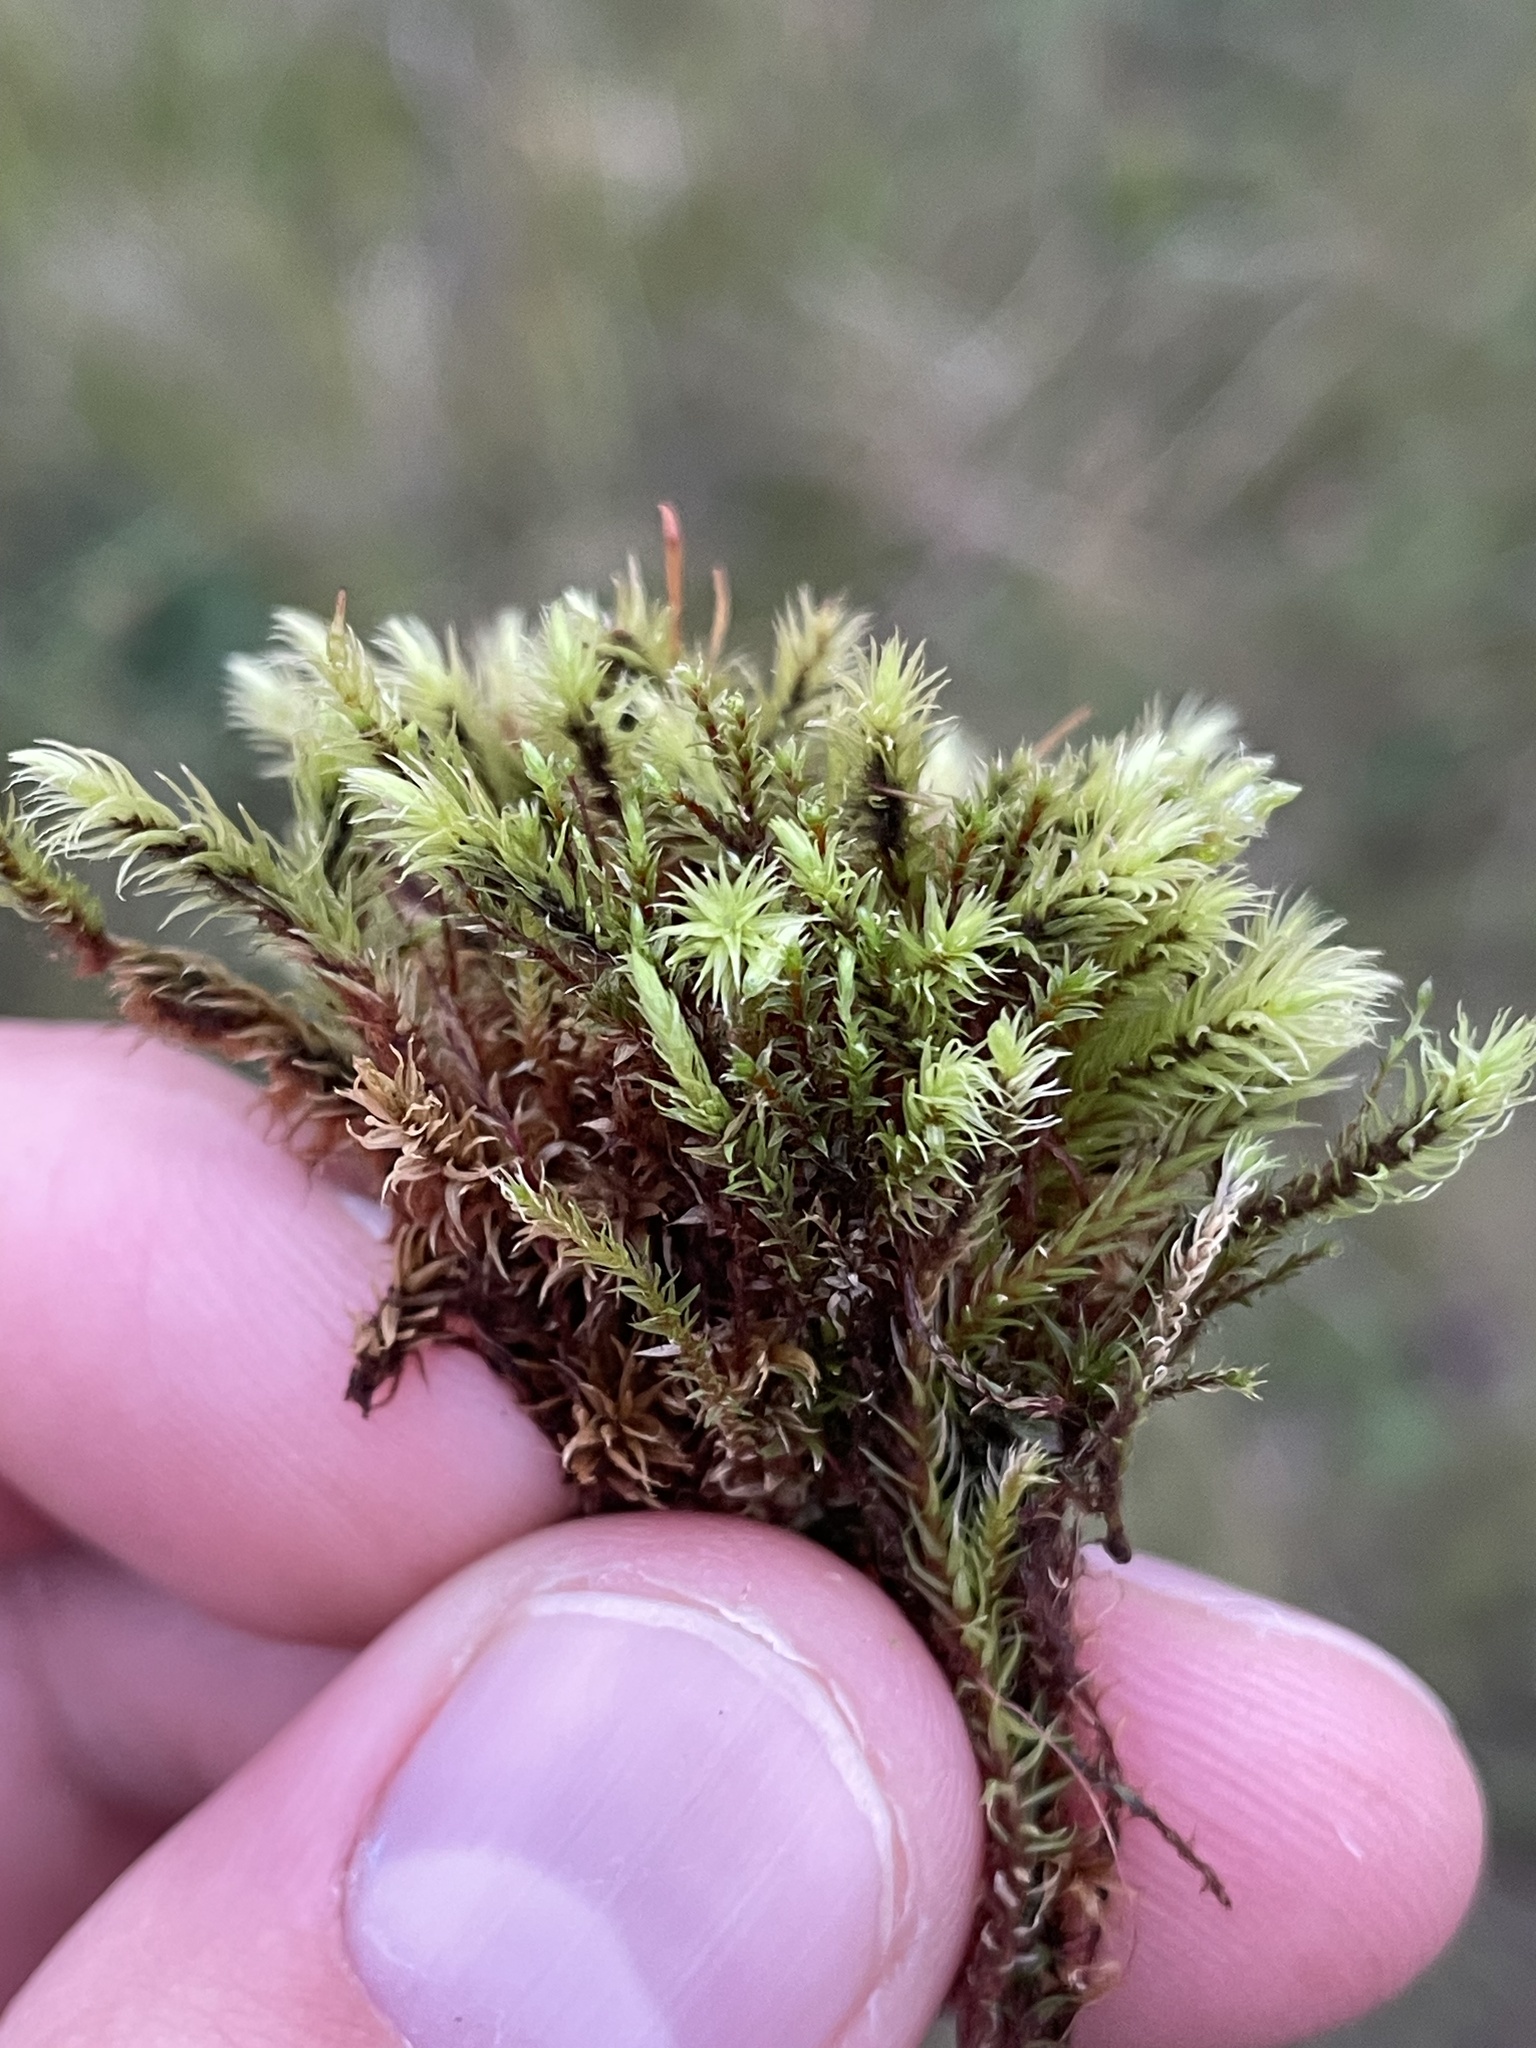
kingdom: Plantae
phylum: Bryophyta
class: Bryopsida
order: Aulacomniales
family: Aulacomniaceae
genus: Aulacomnium
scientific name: Aulacomnium palustre
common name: Bog groove-moss
